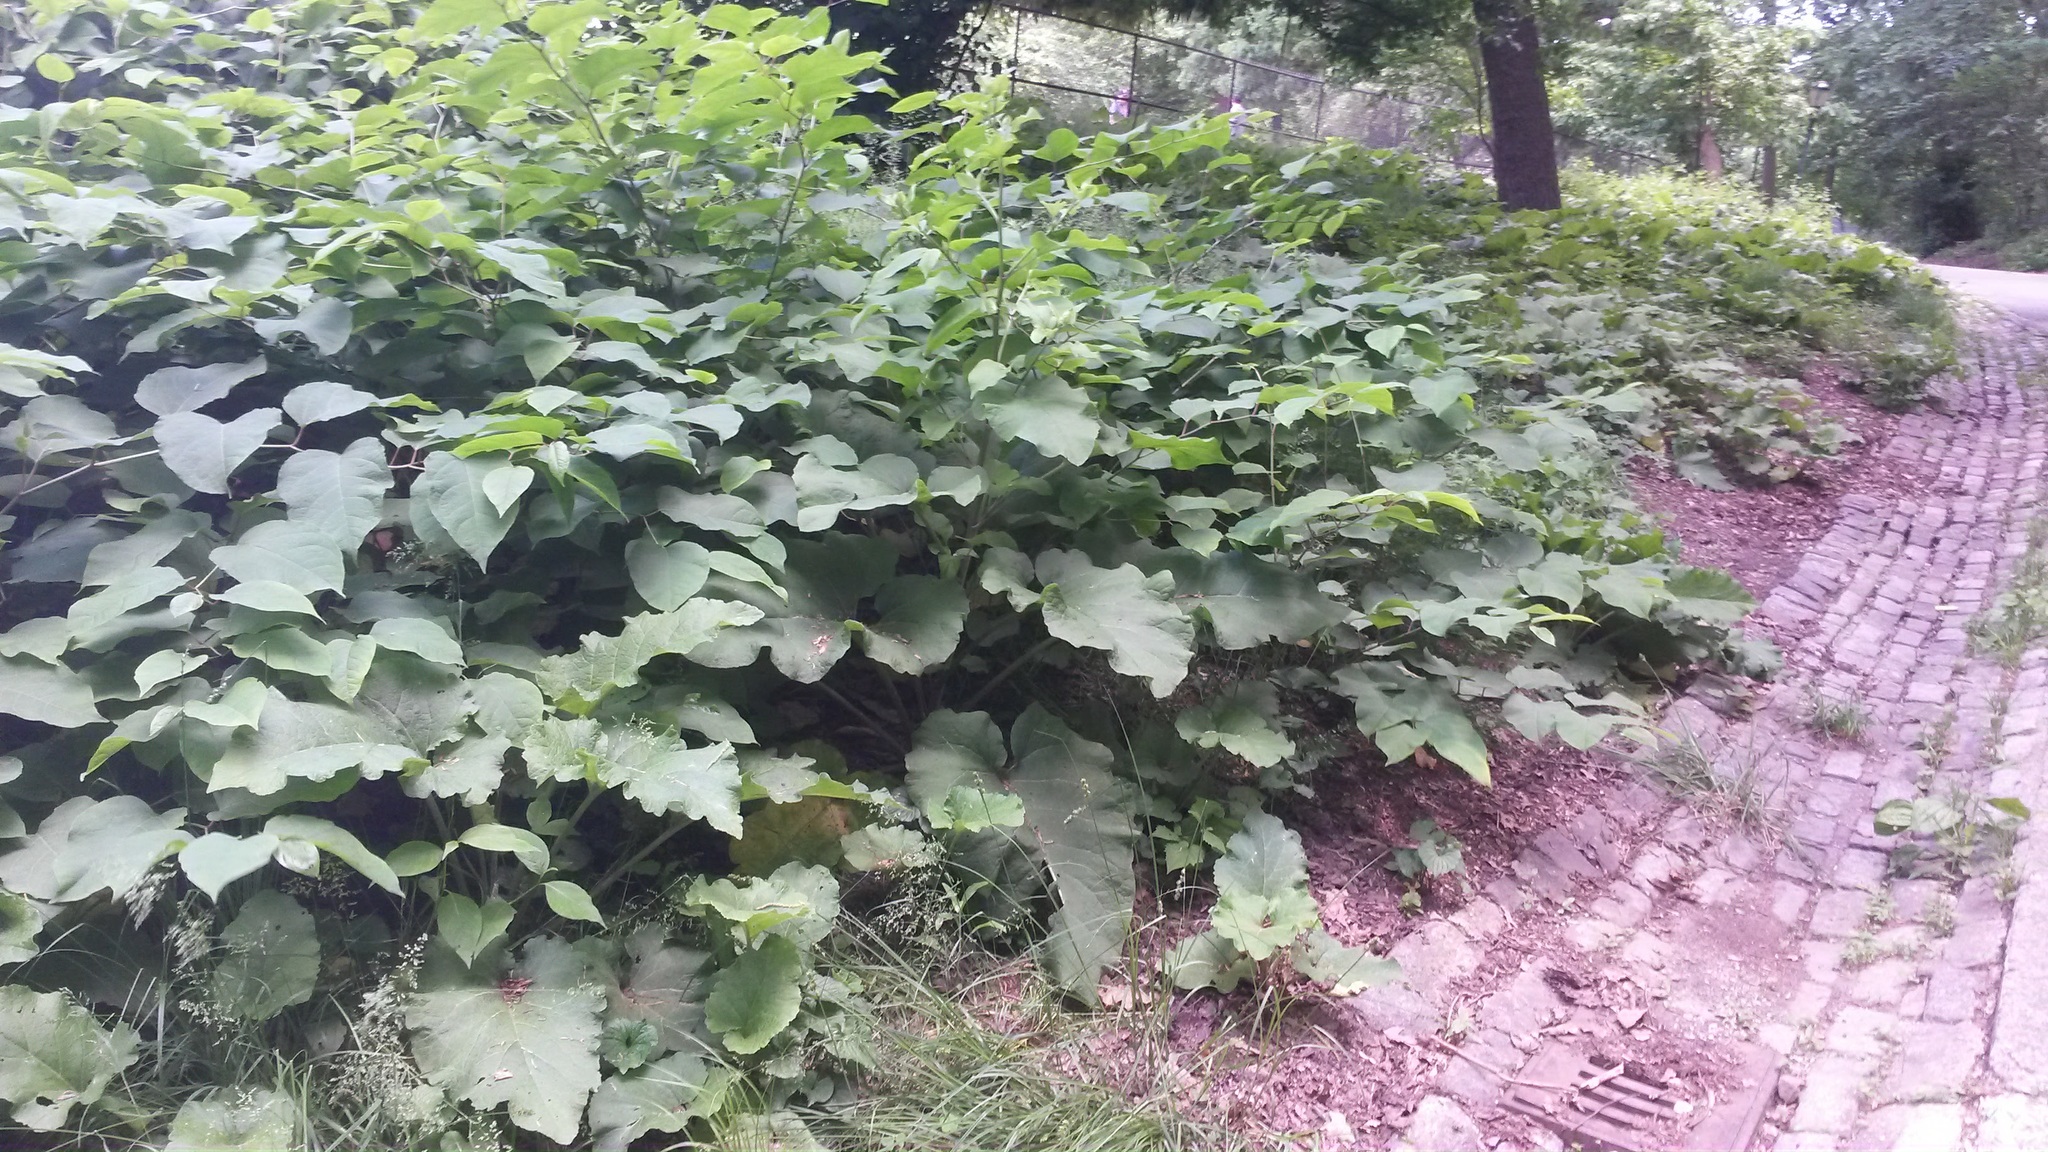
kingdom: Plantae
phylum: Tracheophyta
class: Magnoliopsida
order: Caryophyllales
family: Polygonaceae
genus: Reynoutria
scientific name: Reynoutria japonica
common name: Japanese knotweed
